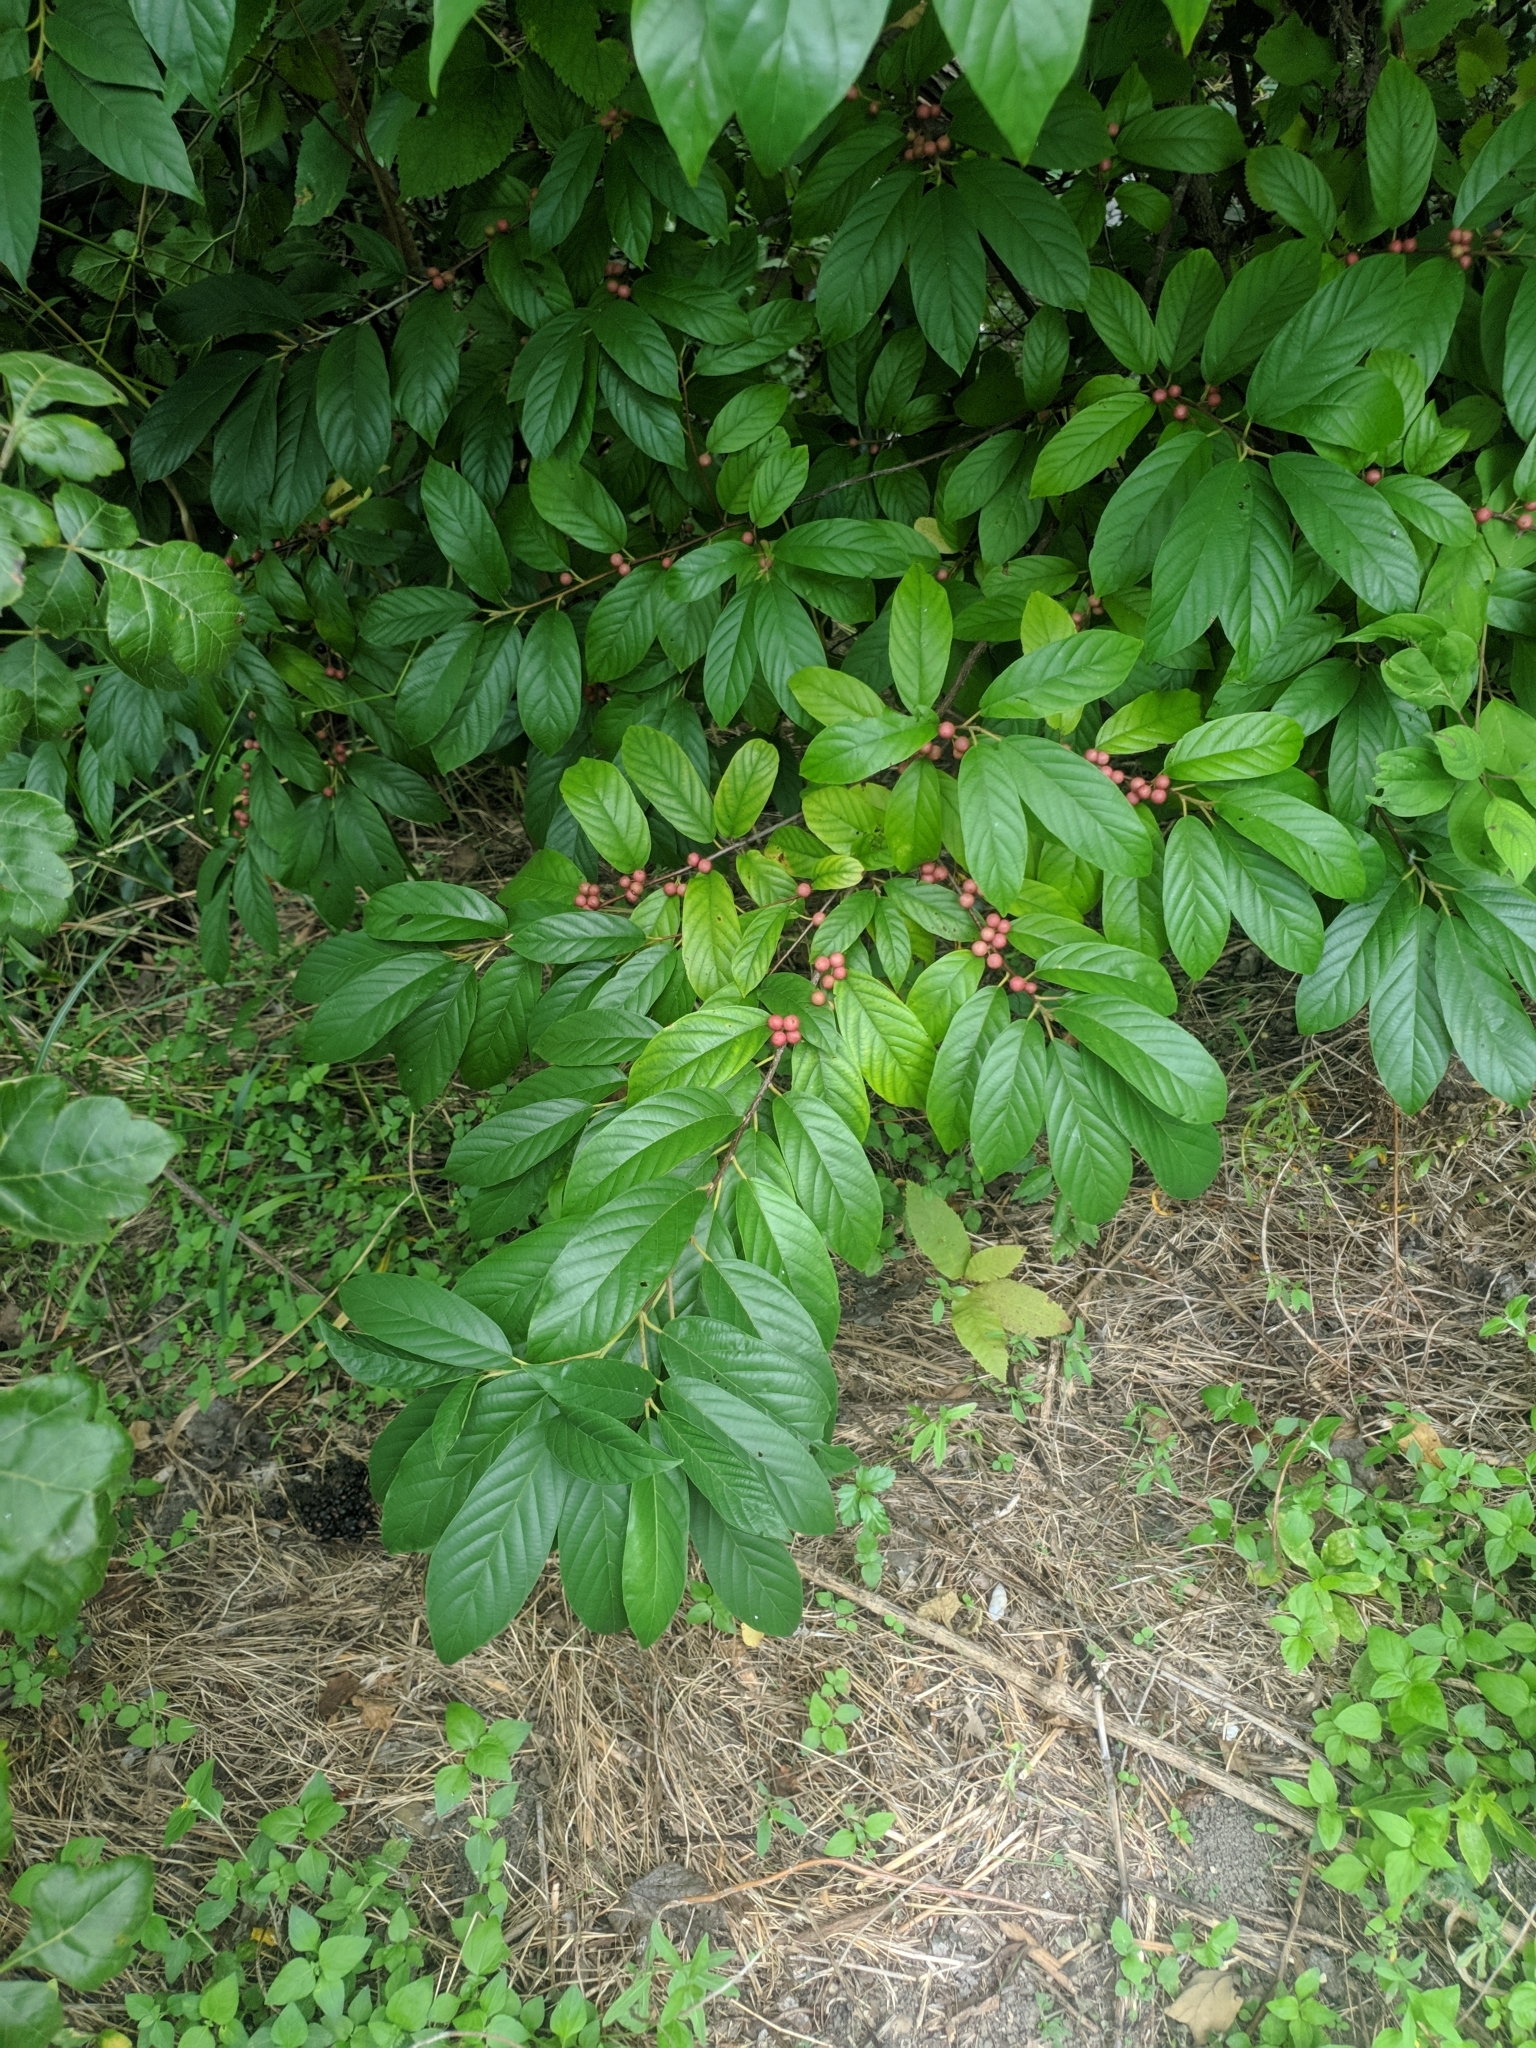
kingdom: Plantae
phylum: Tracheophyta
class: Magnoliopsida
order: Rosales
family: Rhamnaceae
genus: Frangula
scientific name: Frangula caroliniana
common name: Carolina buckthorn
